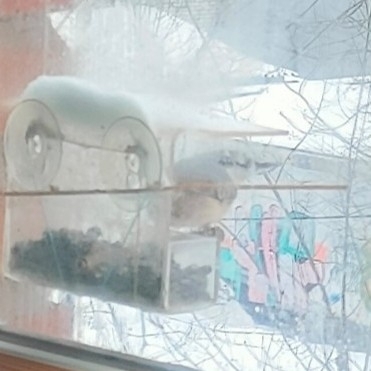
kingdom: Animalia
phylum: Chordata
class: Aves
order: Passeriformes
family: Sittidae
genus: Sitta
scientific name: Sitta europaea
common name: Eurasian nuthatch
